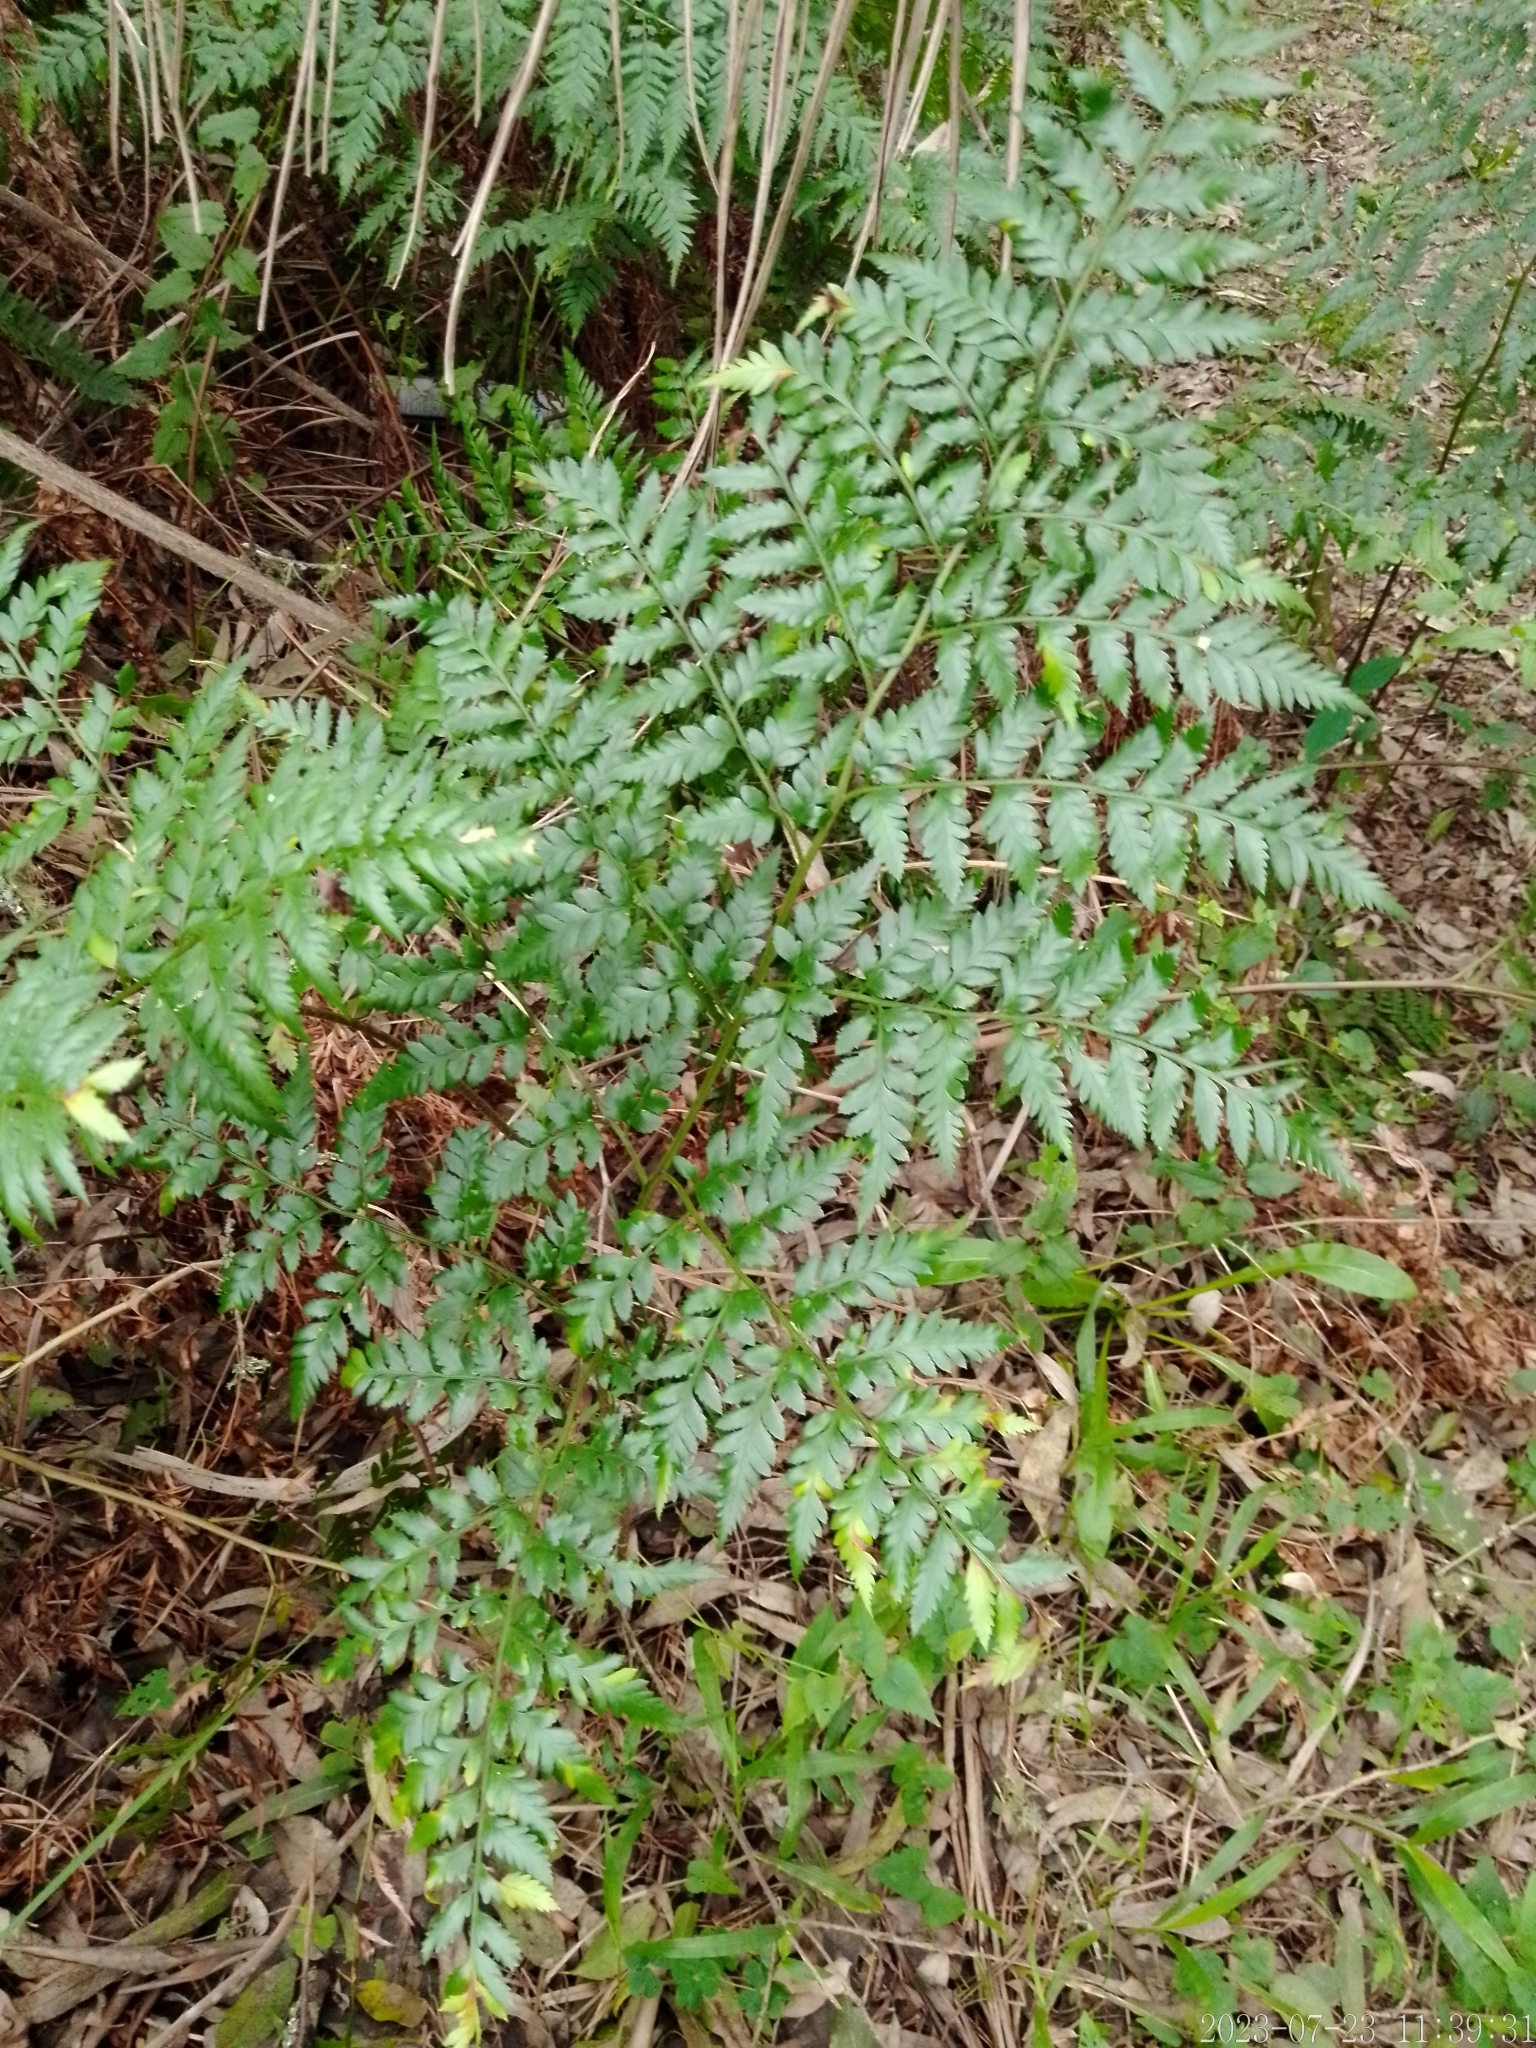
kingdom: Plantae
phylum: Tracheophyta
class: Polypodiopsida
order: Polypodiales
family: Dryopteridaceae
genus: Rumohra
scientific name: Rumohra adiantiformis
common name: Leather fern
